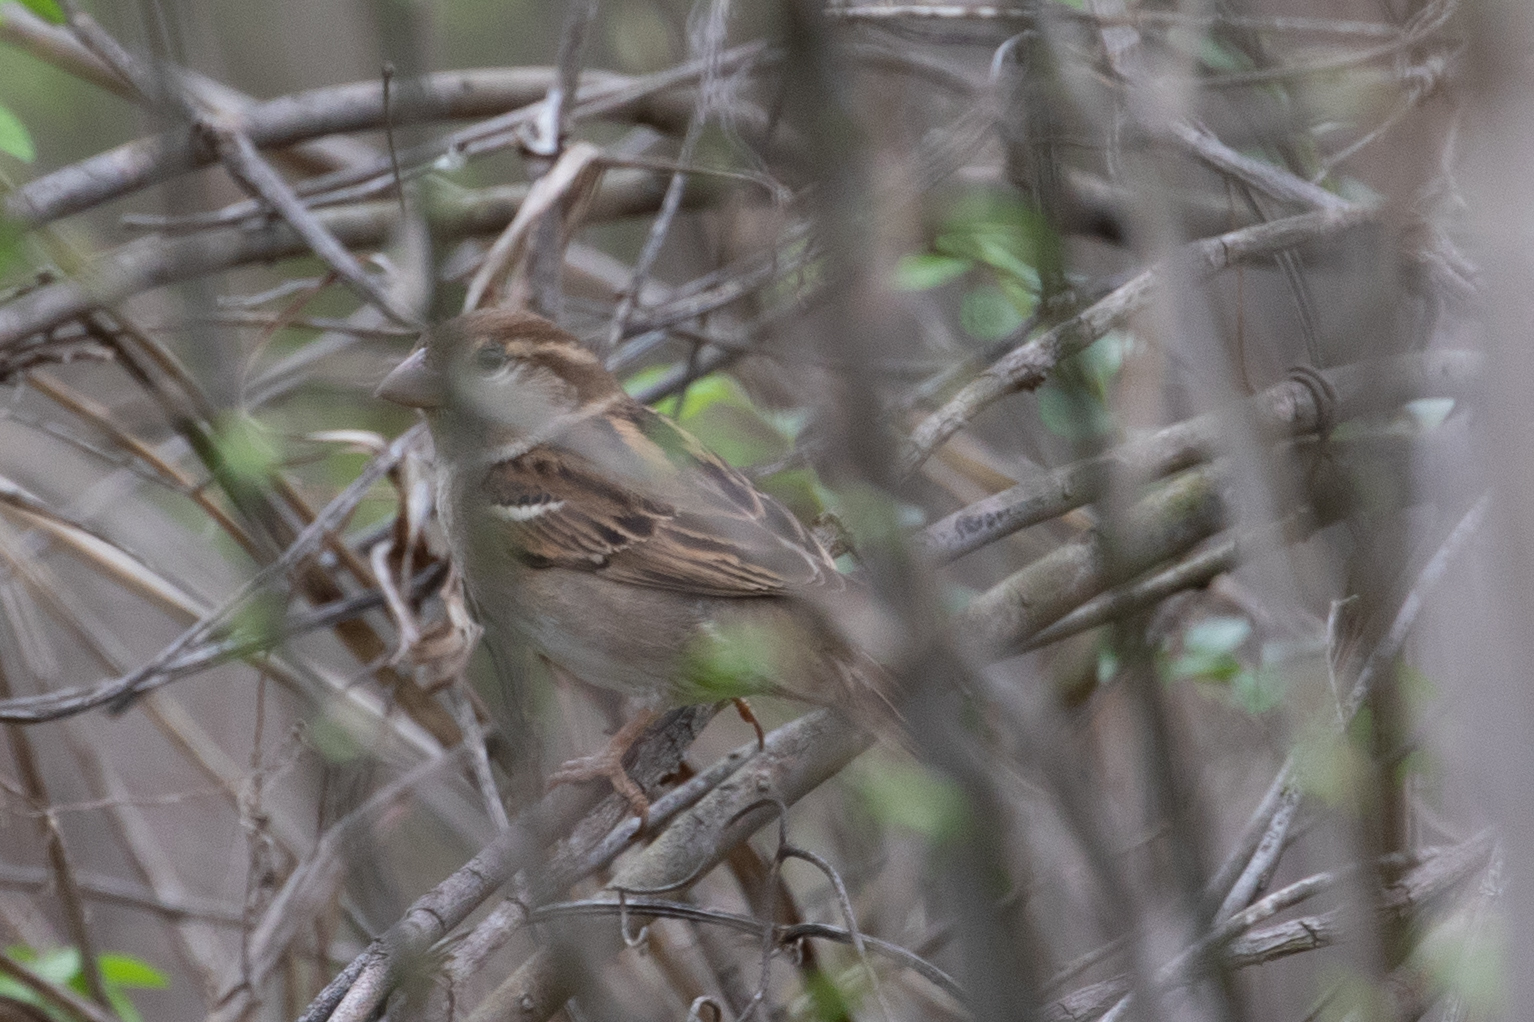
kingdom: Animalia
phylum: Chordata
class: Aves
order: Passeriformes
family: Passeridae
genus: Passer
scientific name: Passer domesticus
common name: House sparrow
